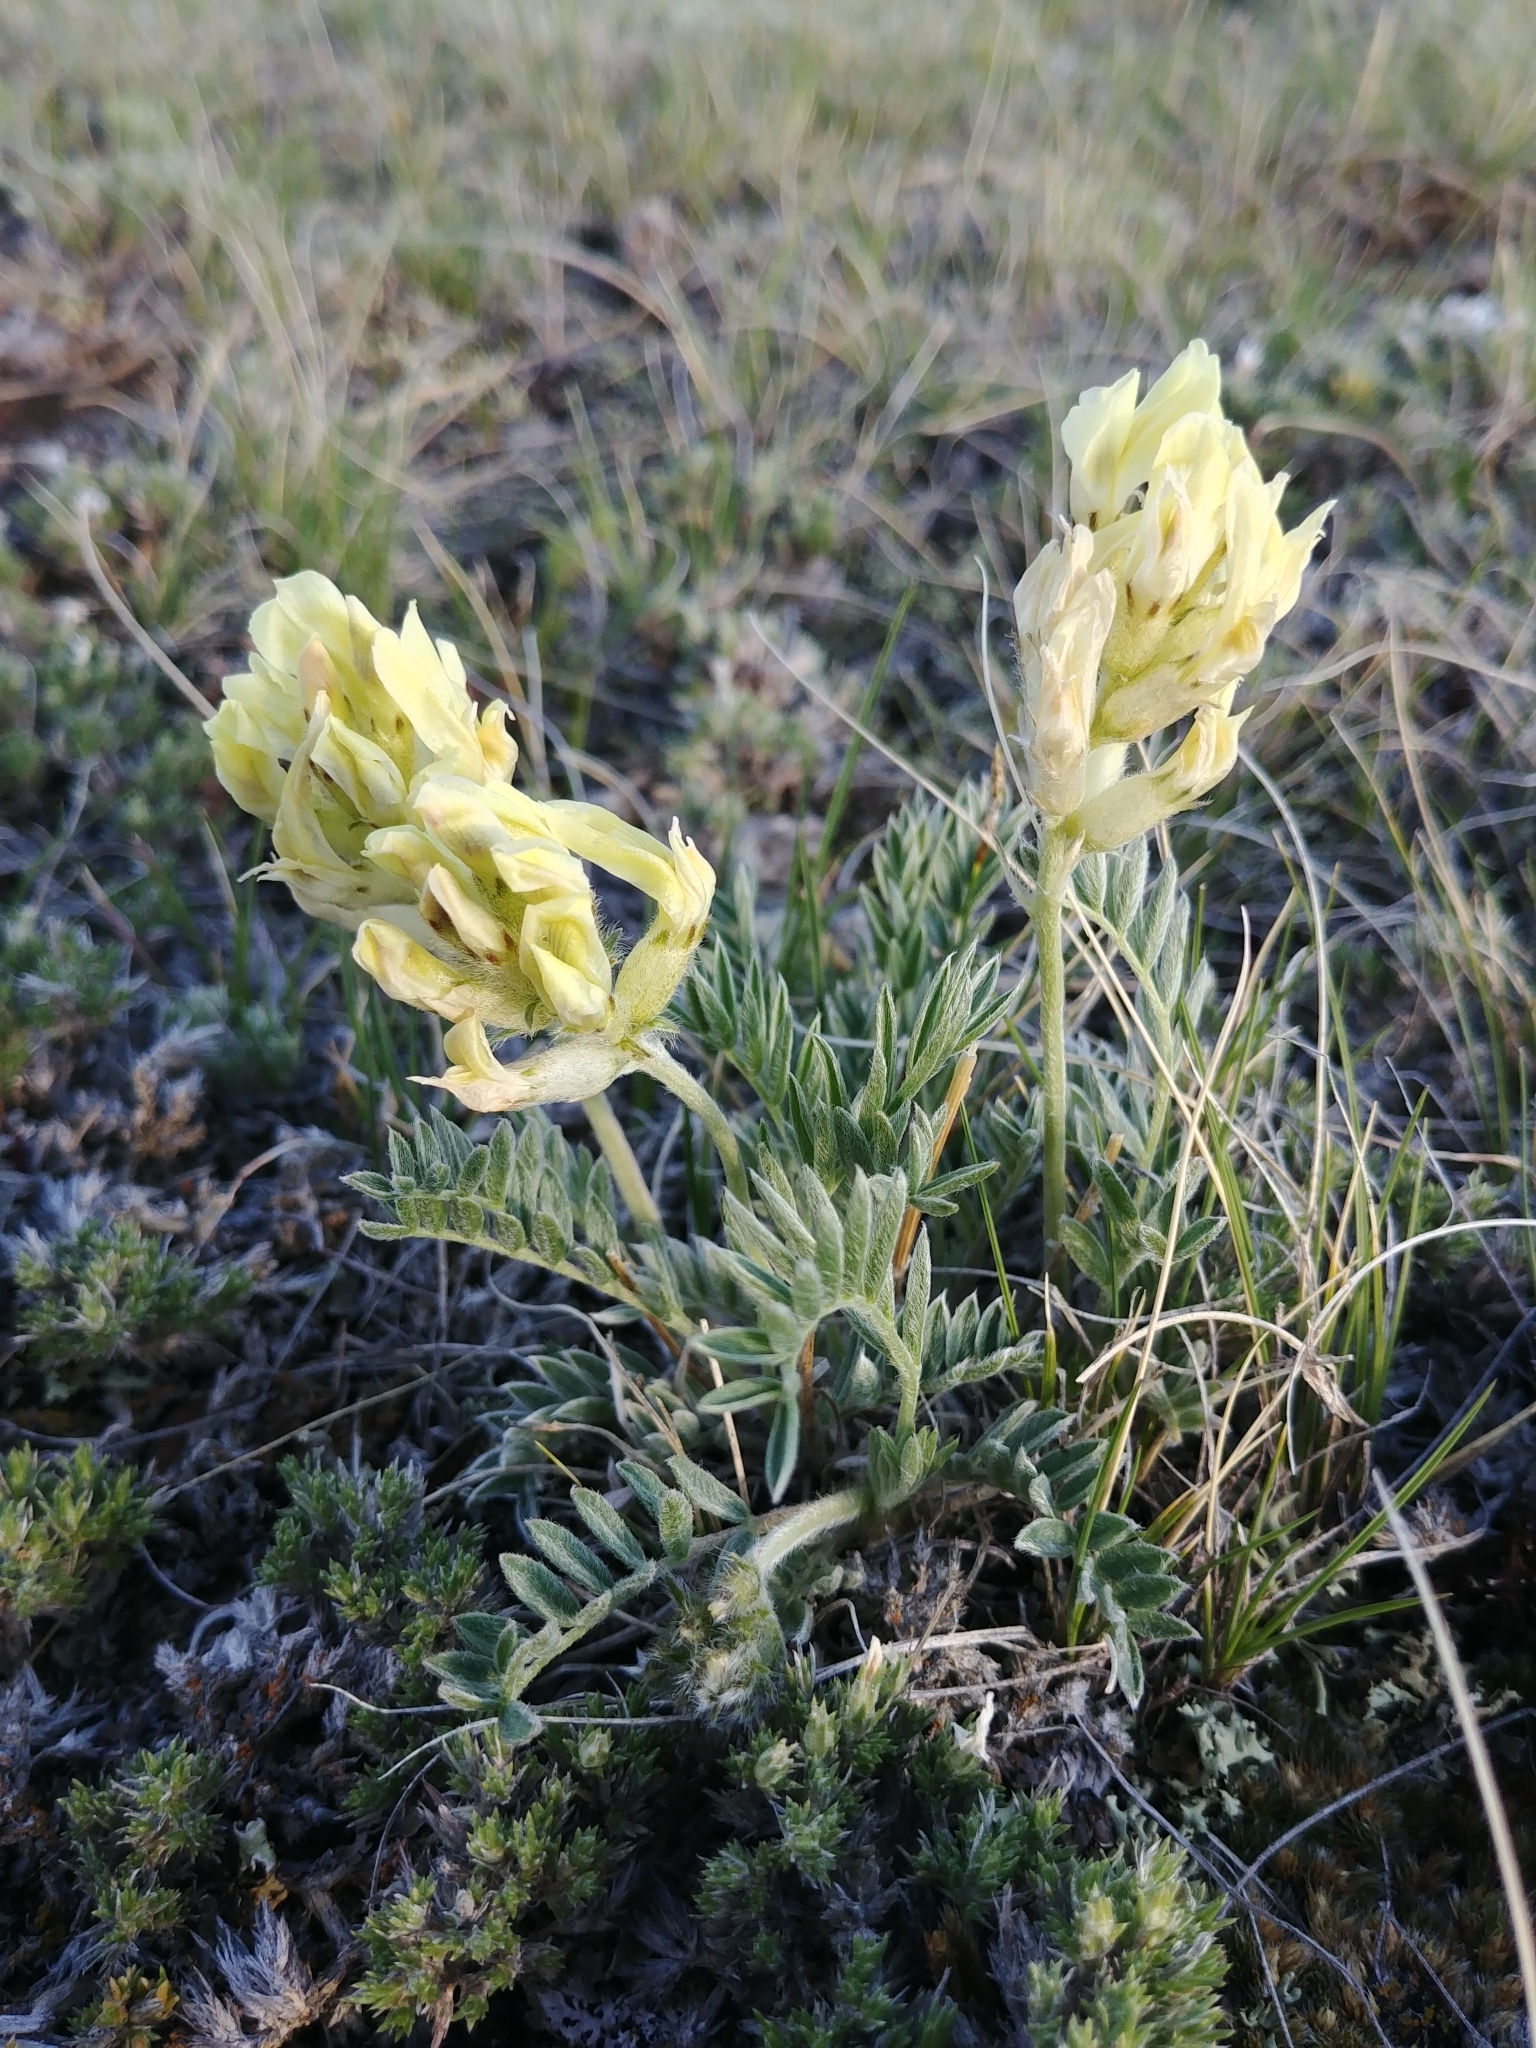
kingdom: Plantae
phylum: Tracheophyta
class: Magnoliopsida
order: Fabales
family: Fabaceae
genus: Oxytropis
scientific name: Oxytropis sericea
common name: Silky locoweed
